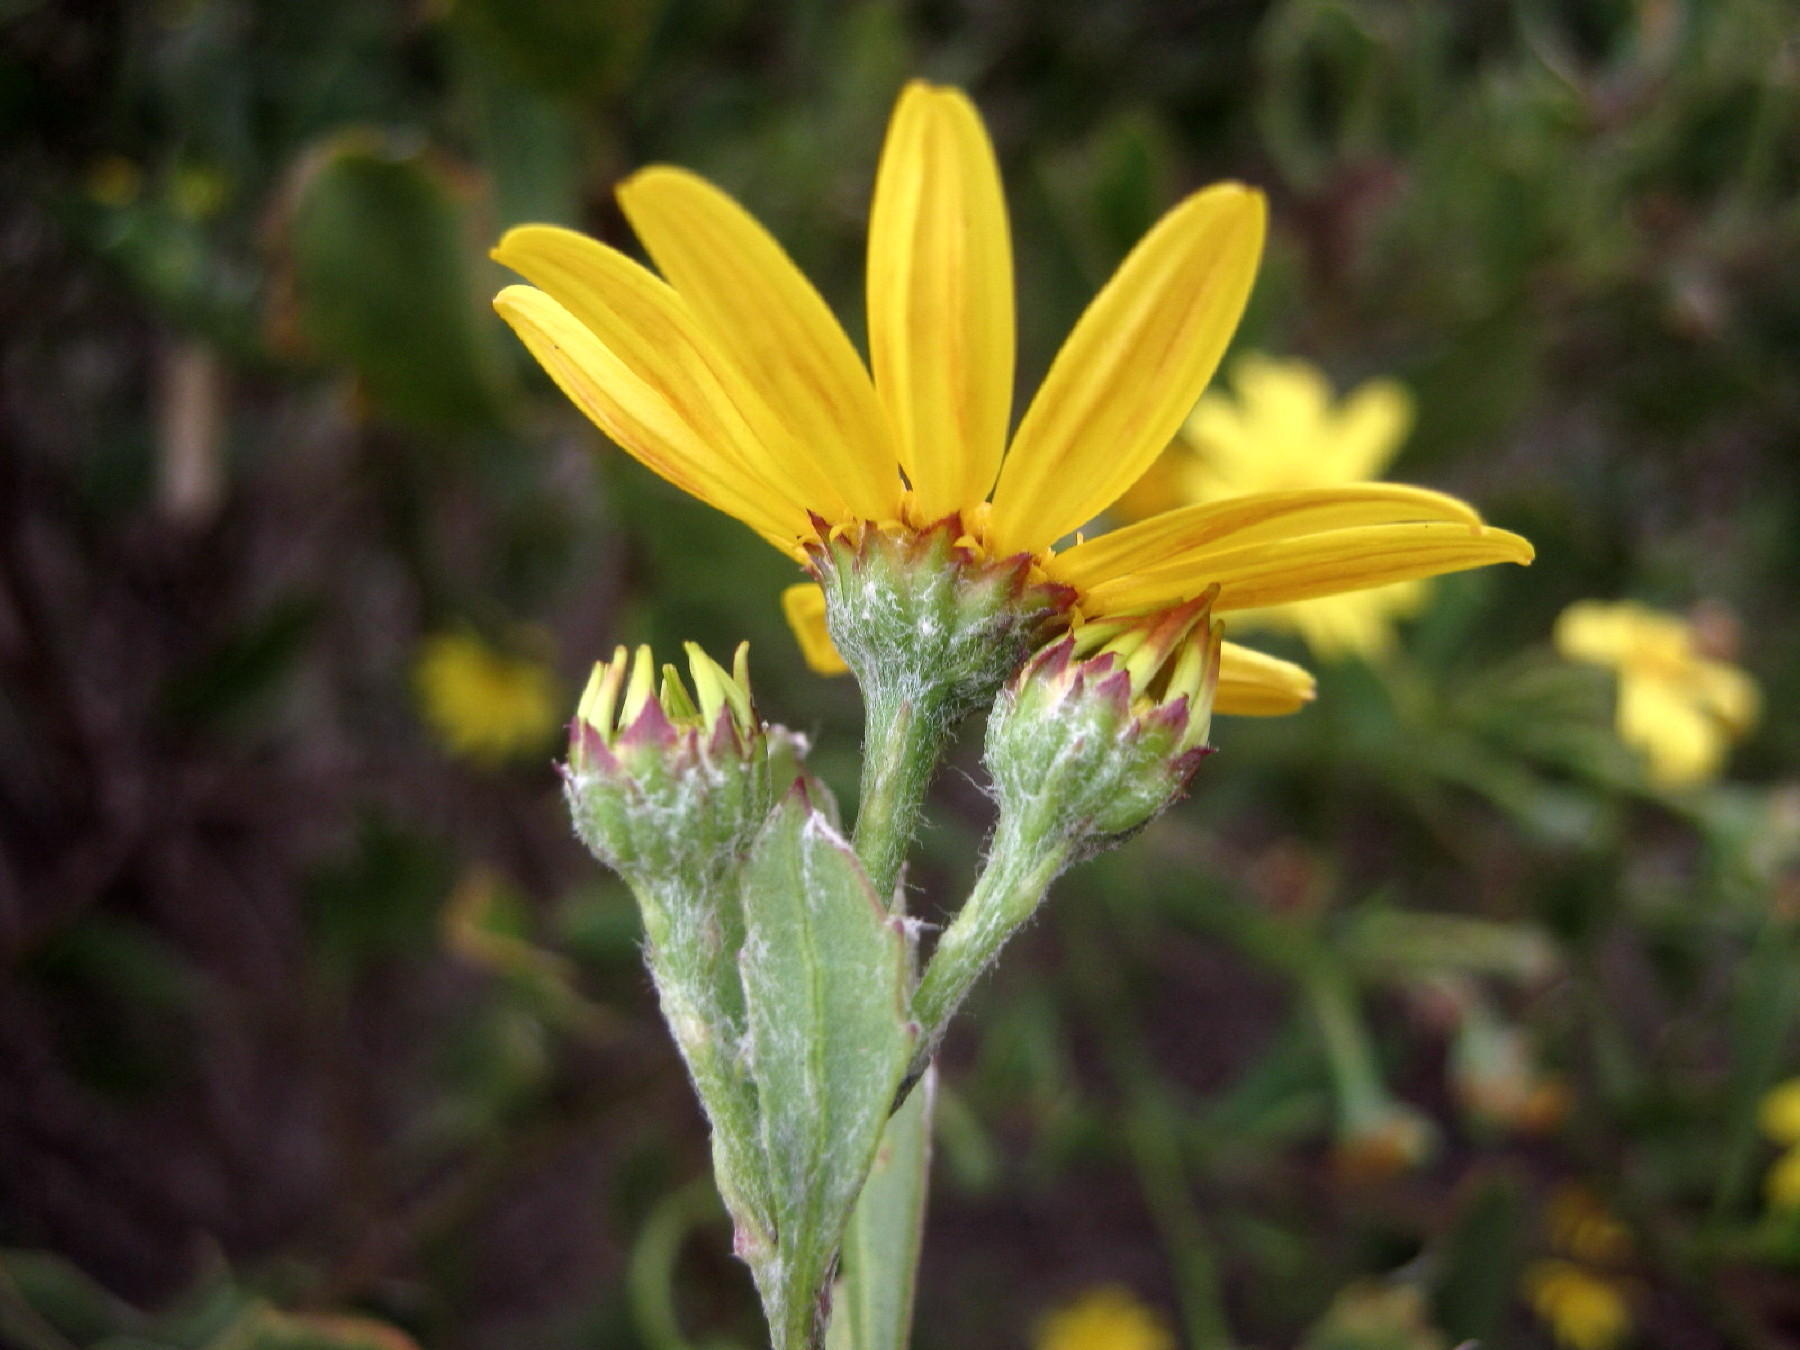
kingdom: Plantae
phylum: Tracheophyta
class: Magnoliopsida
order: Asterales
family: Asteraceae
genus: Osteospermum
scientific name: Osteospermum moniliferum
